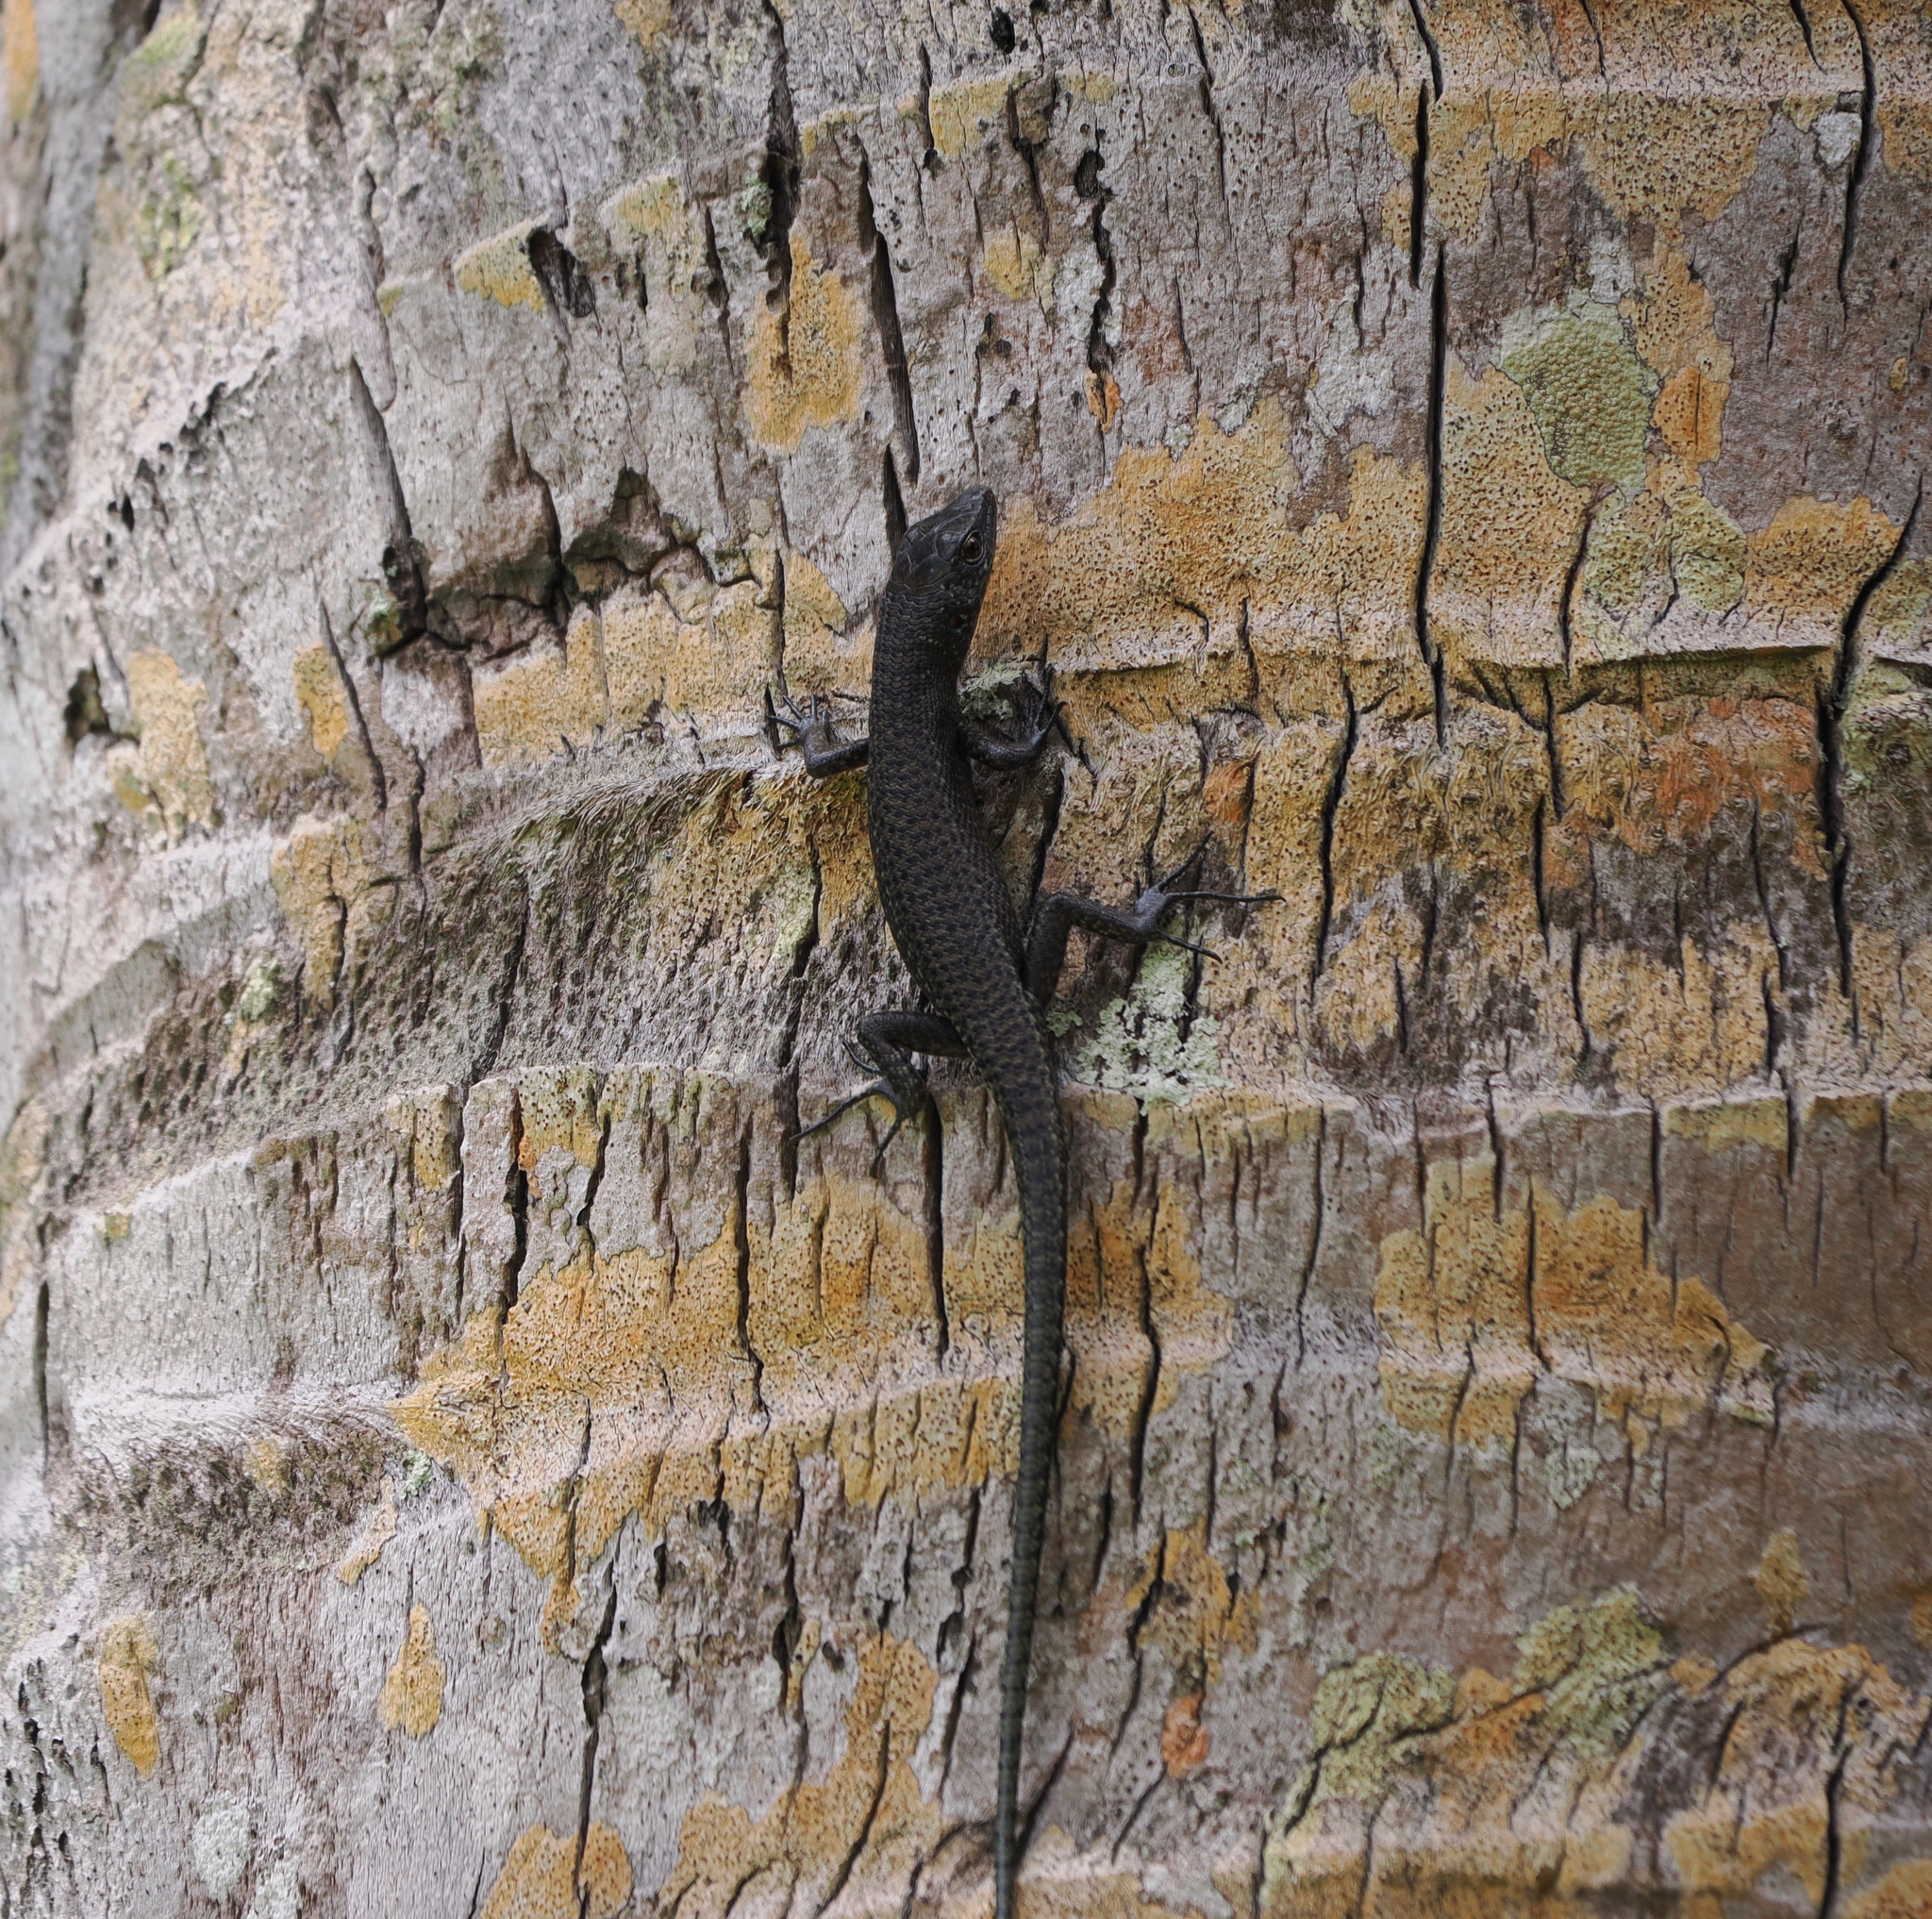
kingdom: Animalia
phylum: Chordata
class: Squamata
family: Scincidae
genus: Emoia
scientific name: Emoia nigra
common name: Black emo skink
